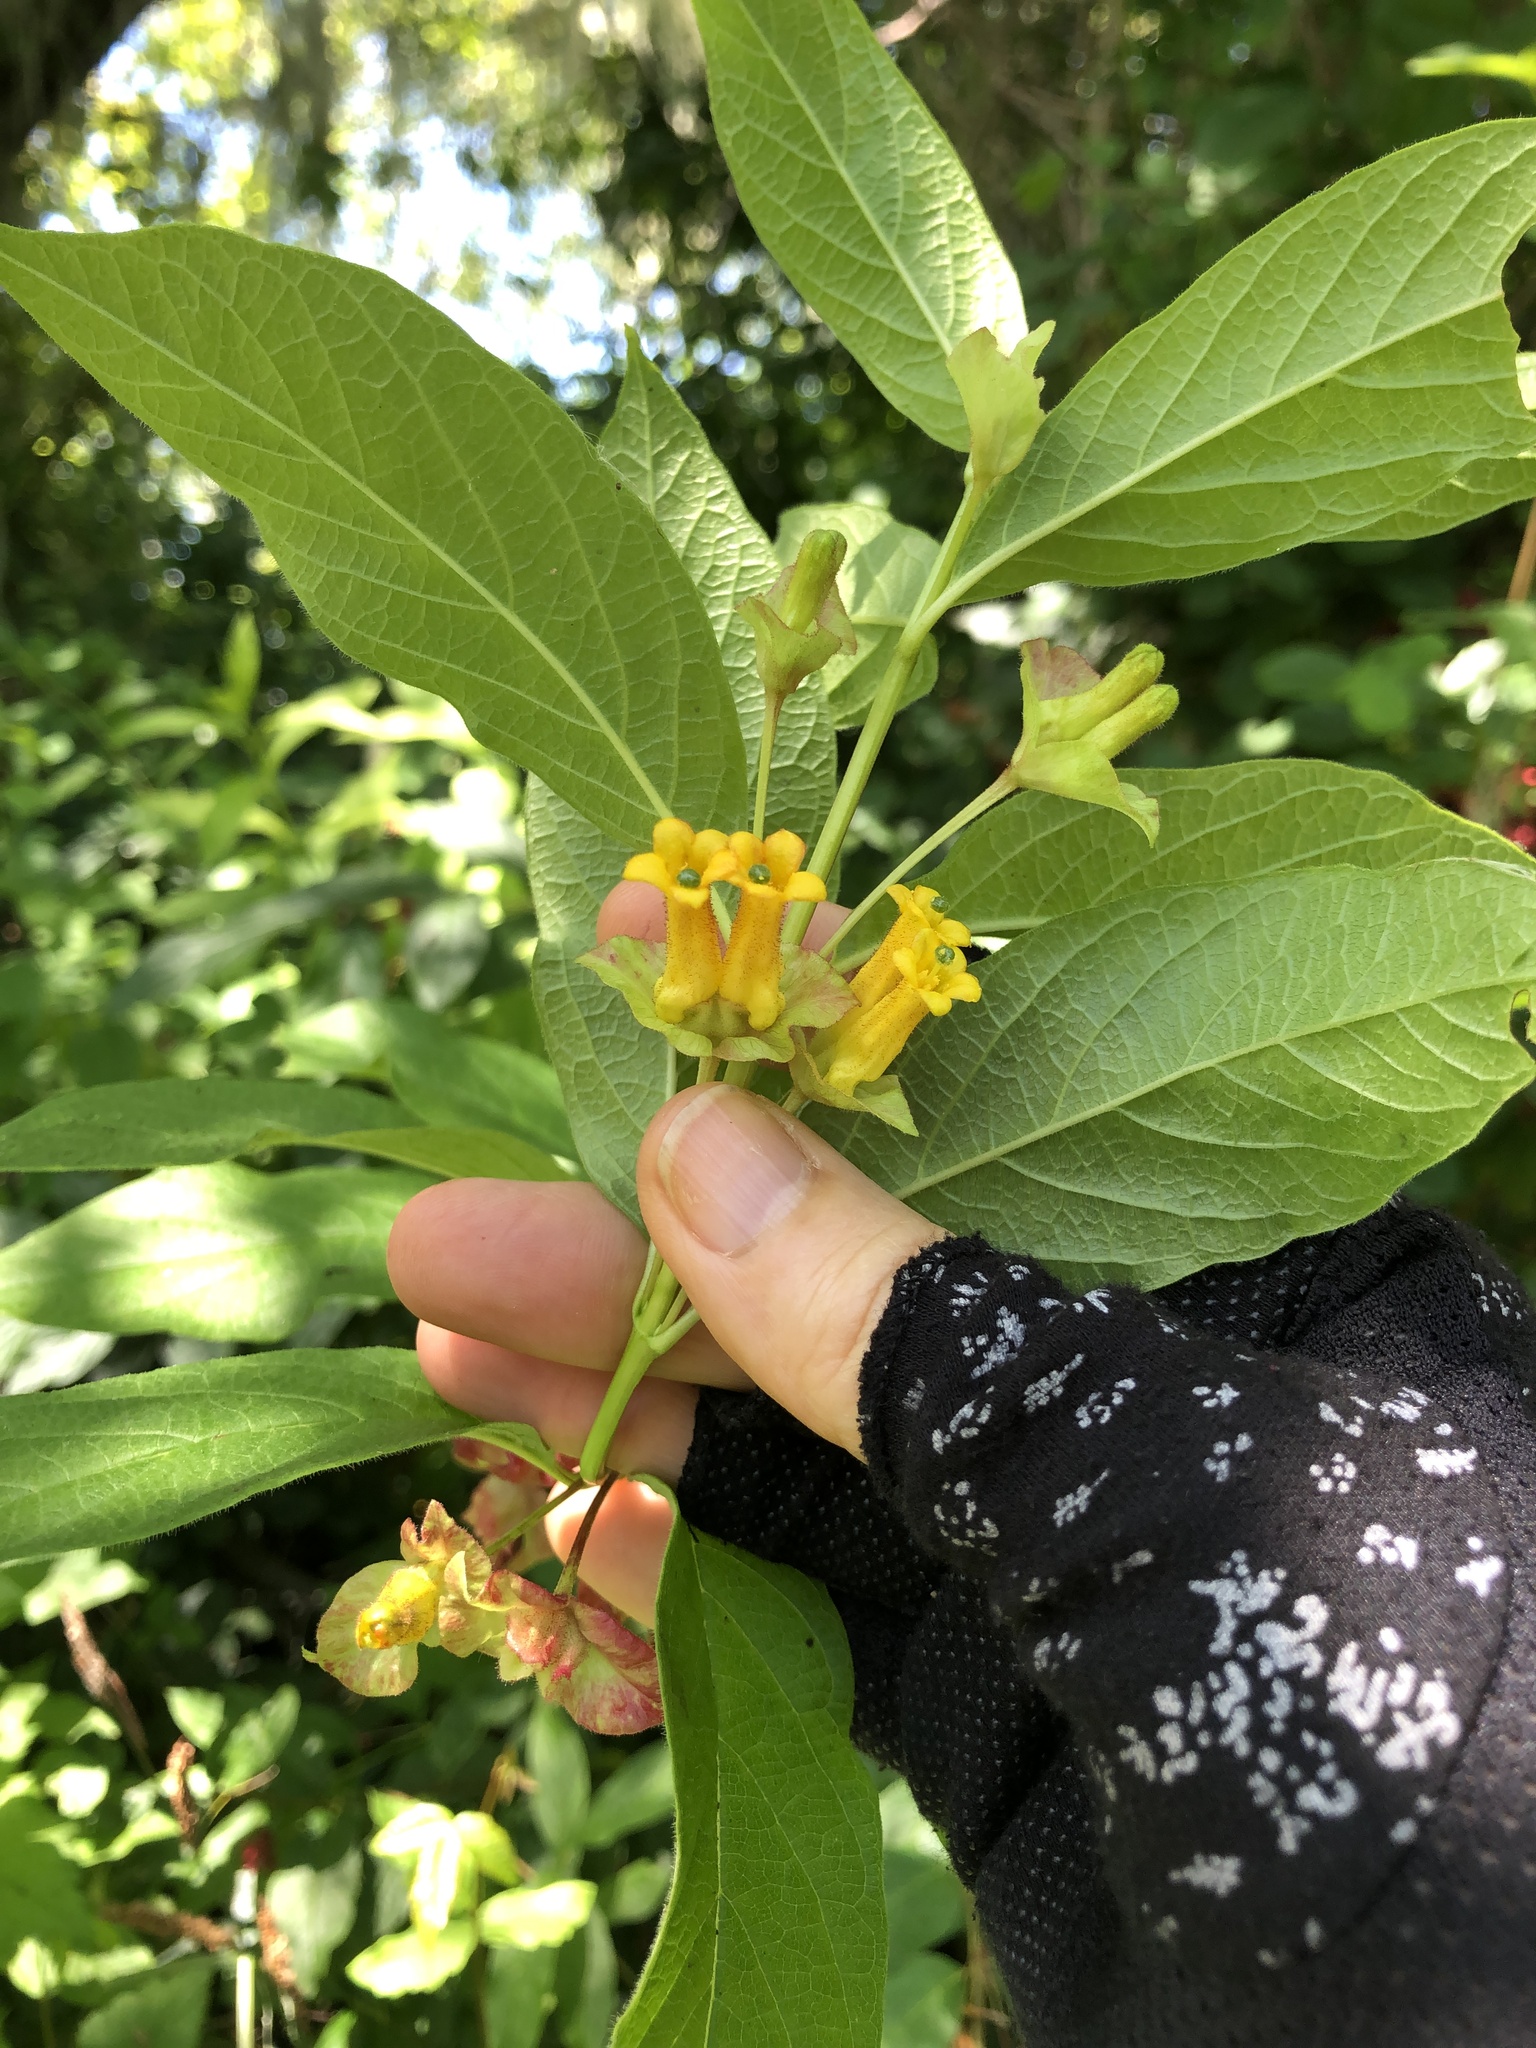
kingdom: Plantae
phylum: Tracheophyta
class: Magnoliopsida
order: Dipsacales
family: Caprifoliaceae
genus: Lonicera
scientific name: Lonicera involucrata
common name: Californian honeysuckle
